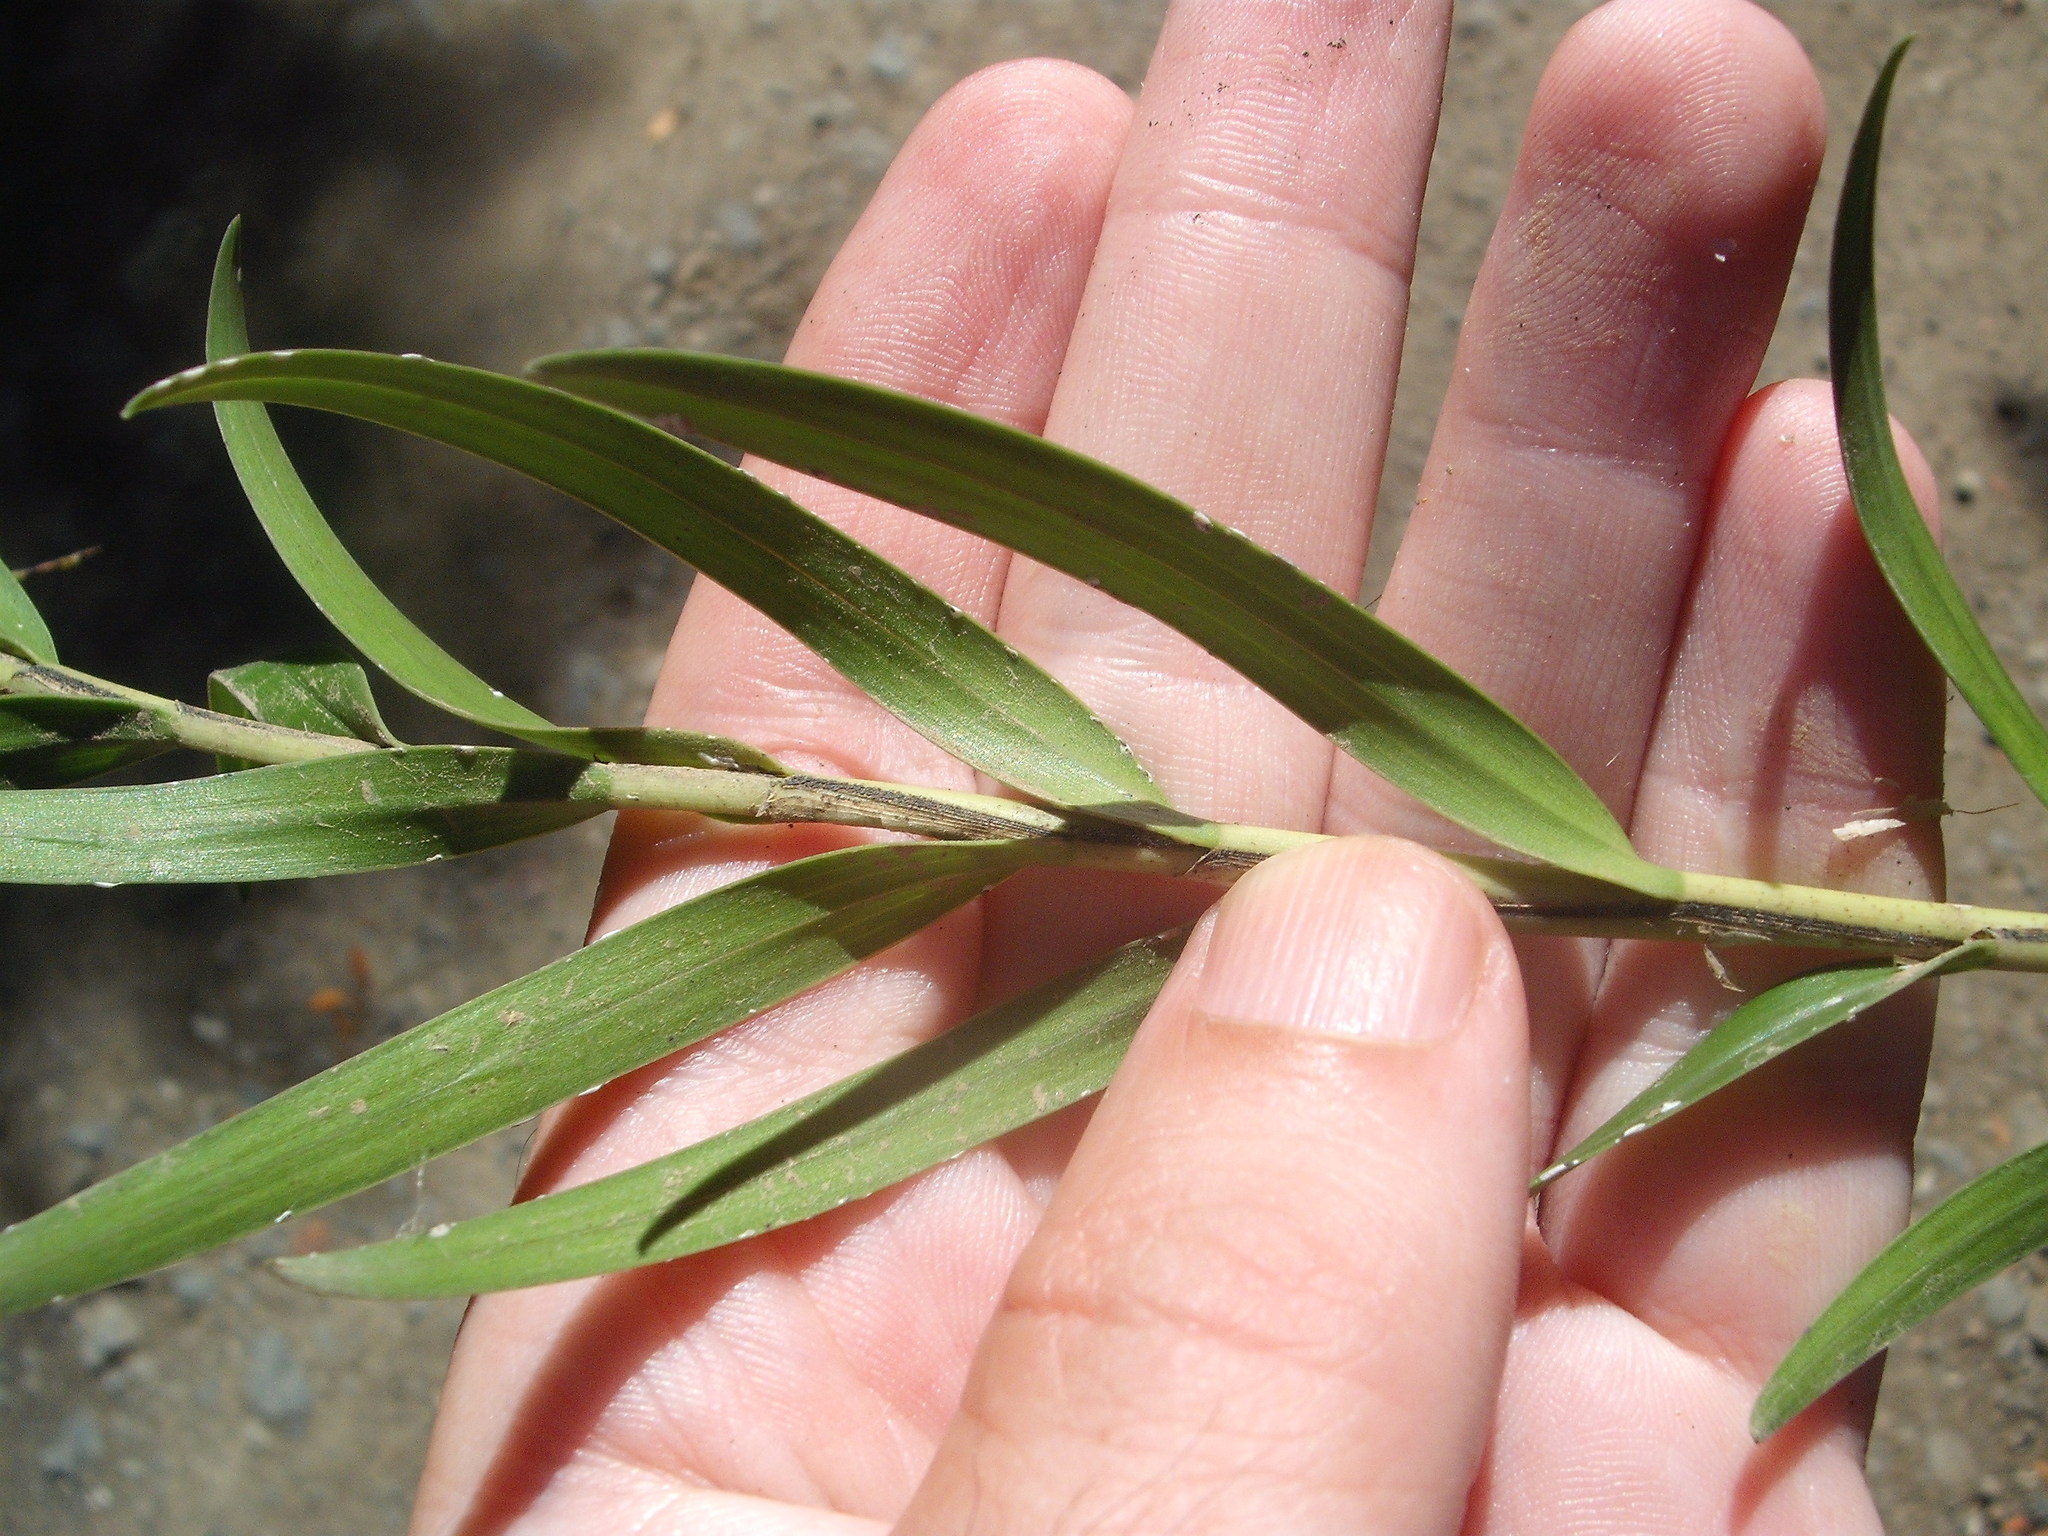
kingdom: Plantae
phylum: Tracheophyta
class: Liliopsida
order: Asparagales
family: Orchidaceae
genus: Earina
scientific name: Earina autumnalis
